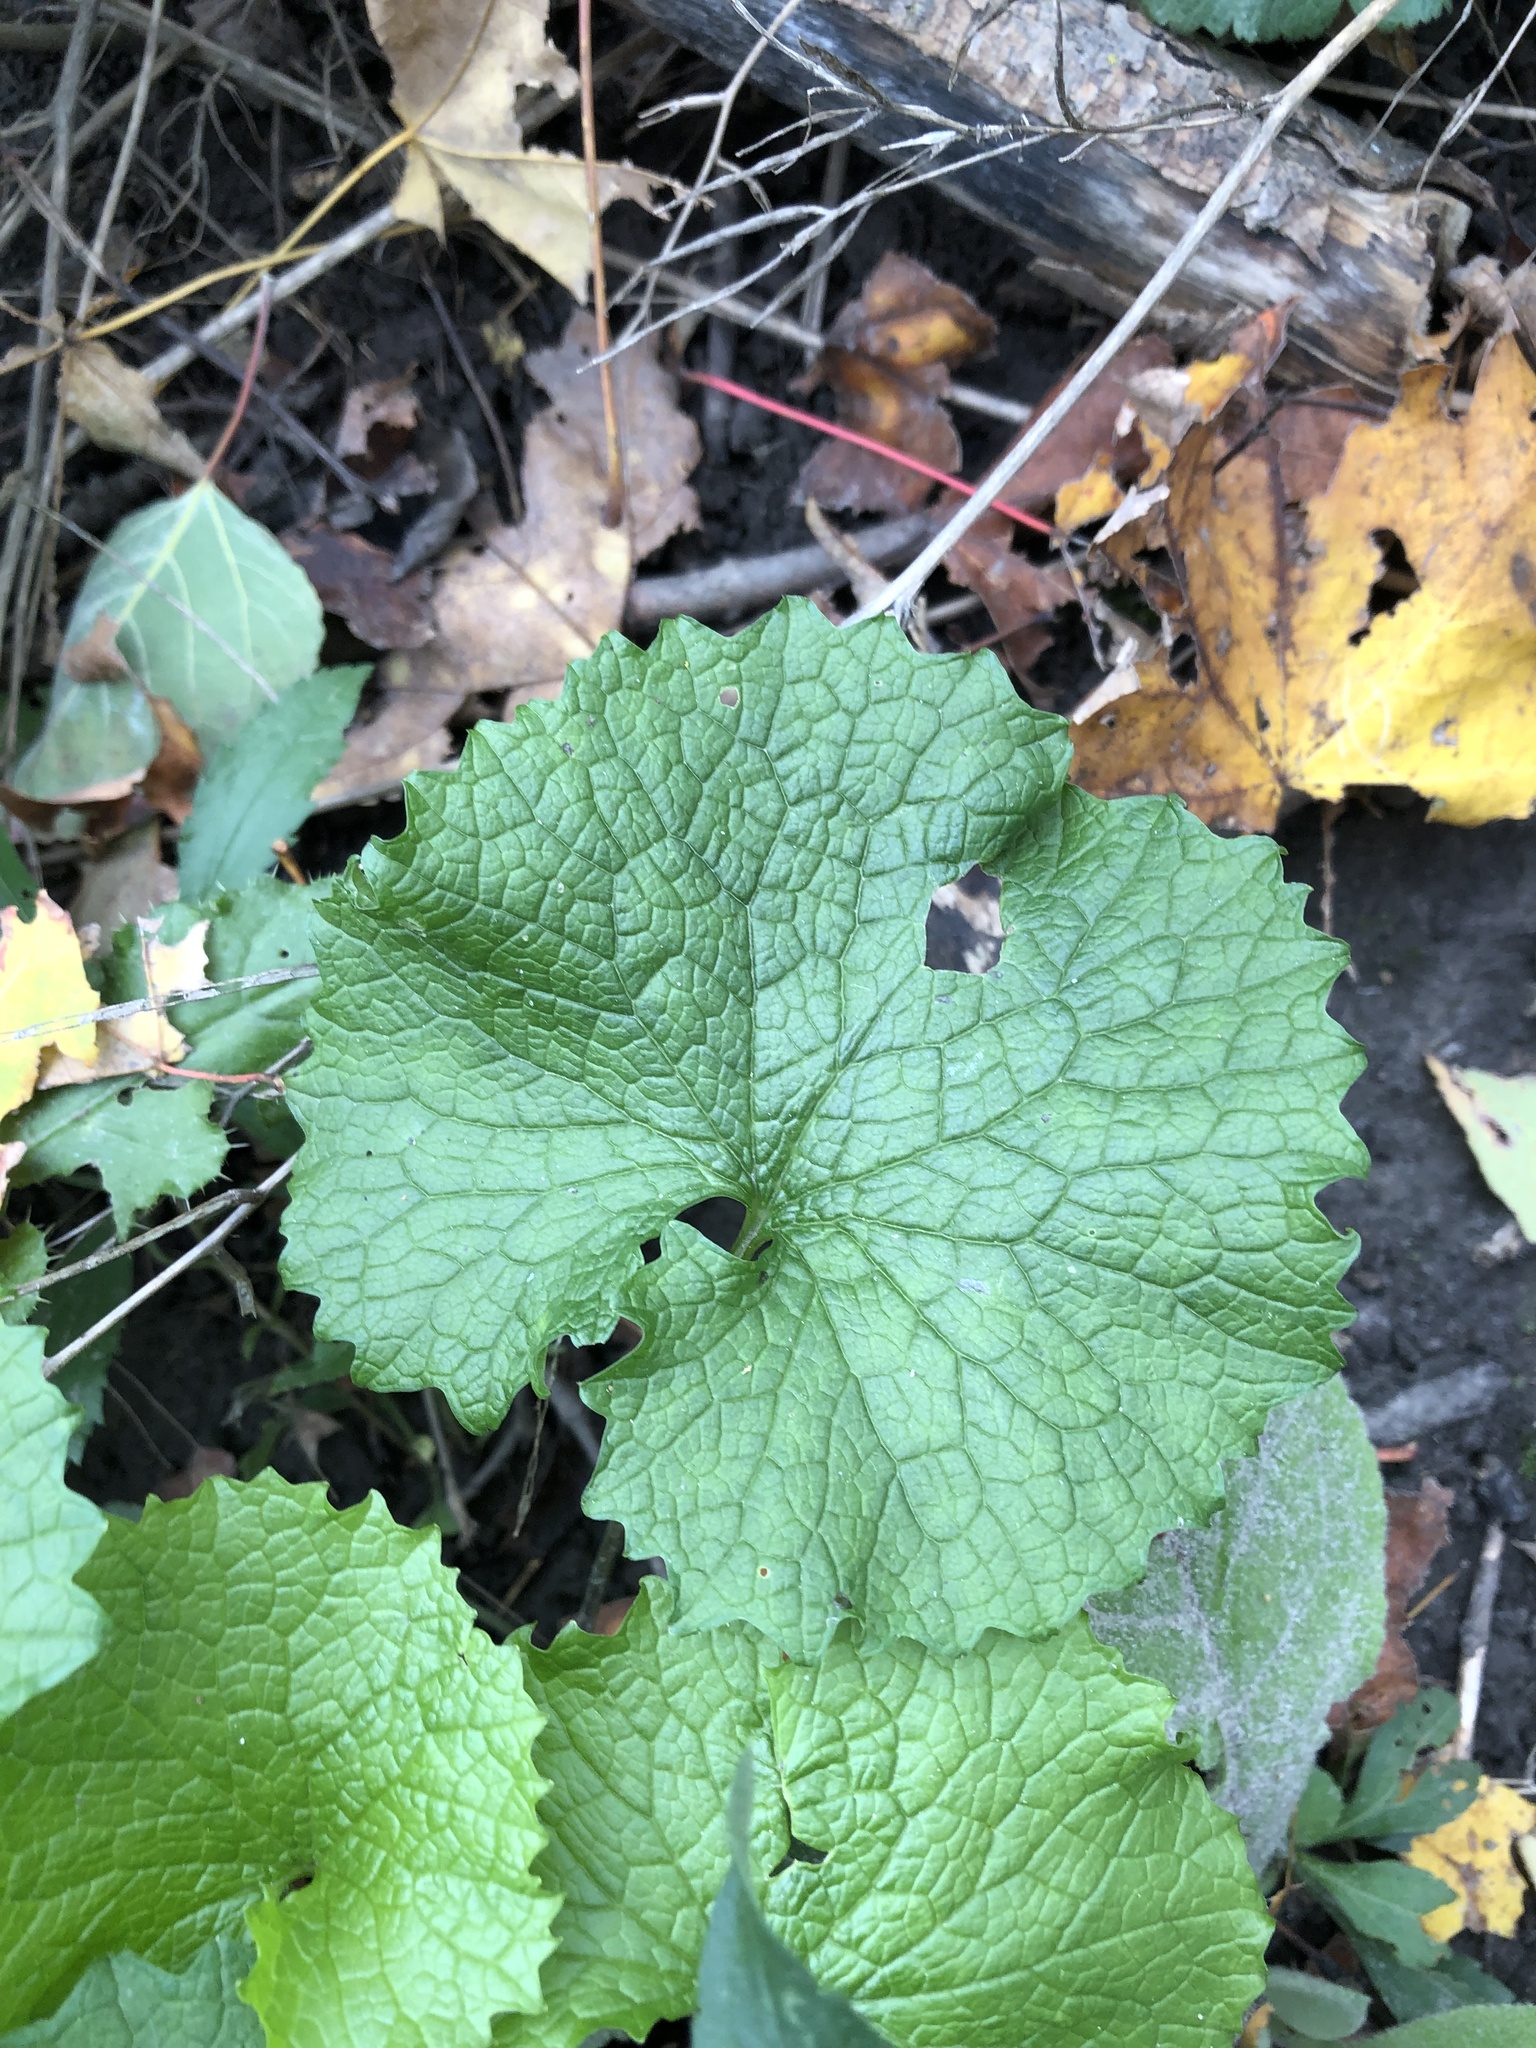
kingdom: Plantae
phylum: Tracheophyta
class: Magnoliopsida
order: Brassicales
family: Brassicaceae
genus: Alliaria
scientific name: Alliaria petiolata
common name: Garlic mustard
